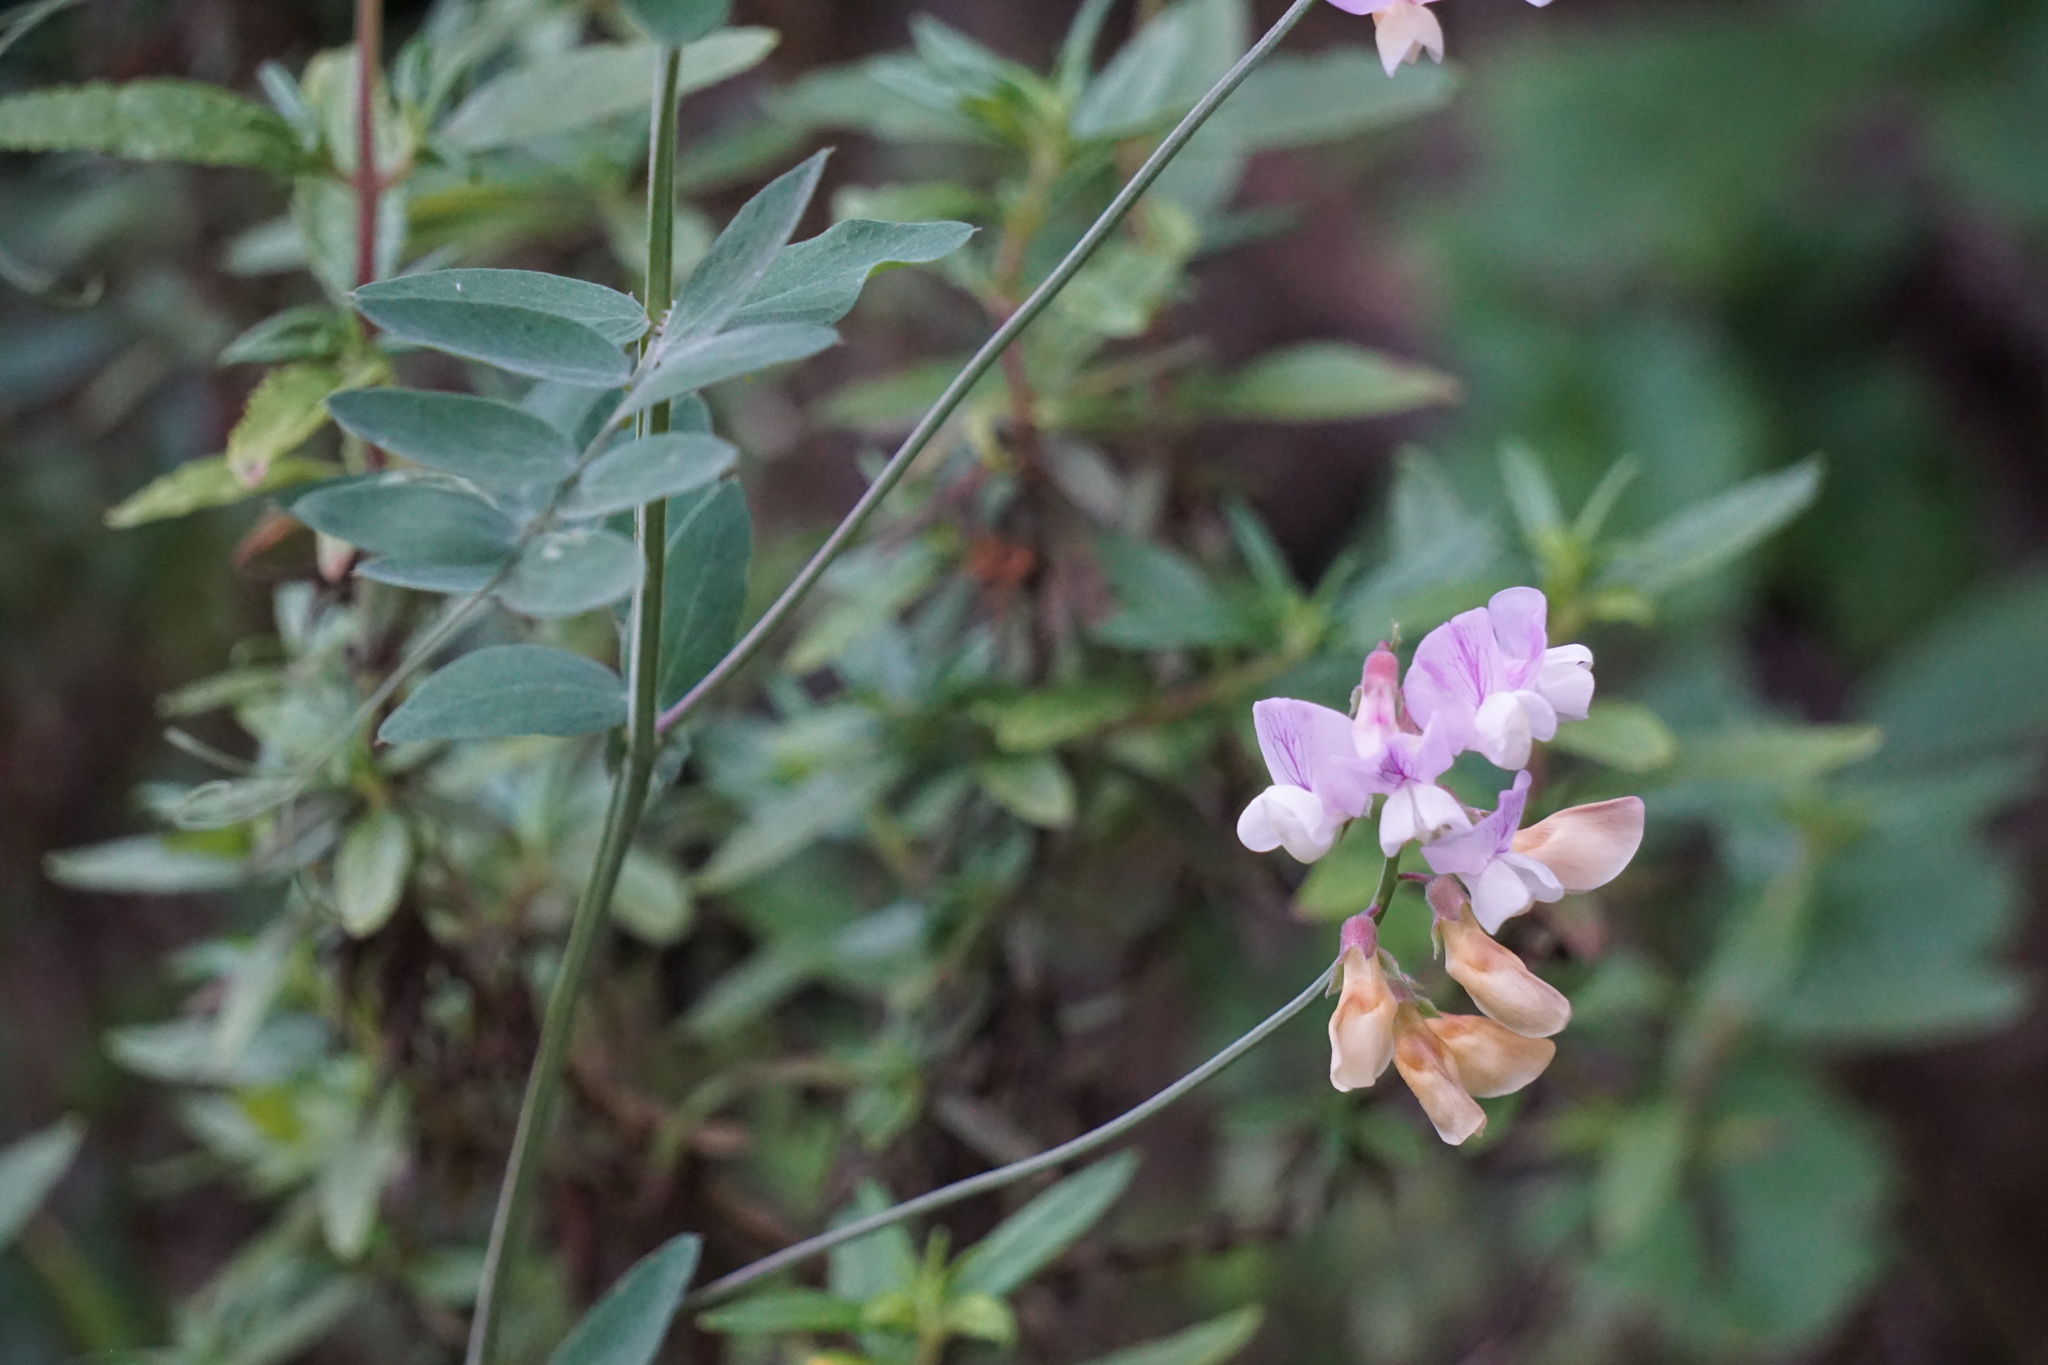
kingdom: Plantae
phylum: Tracheophyta
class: Magnoliopsida
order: Fabales
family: Fabaceae
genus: Lathyrus
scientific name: Lathyrus vestitus
